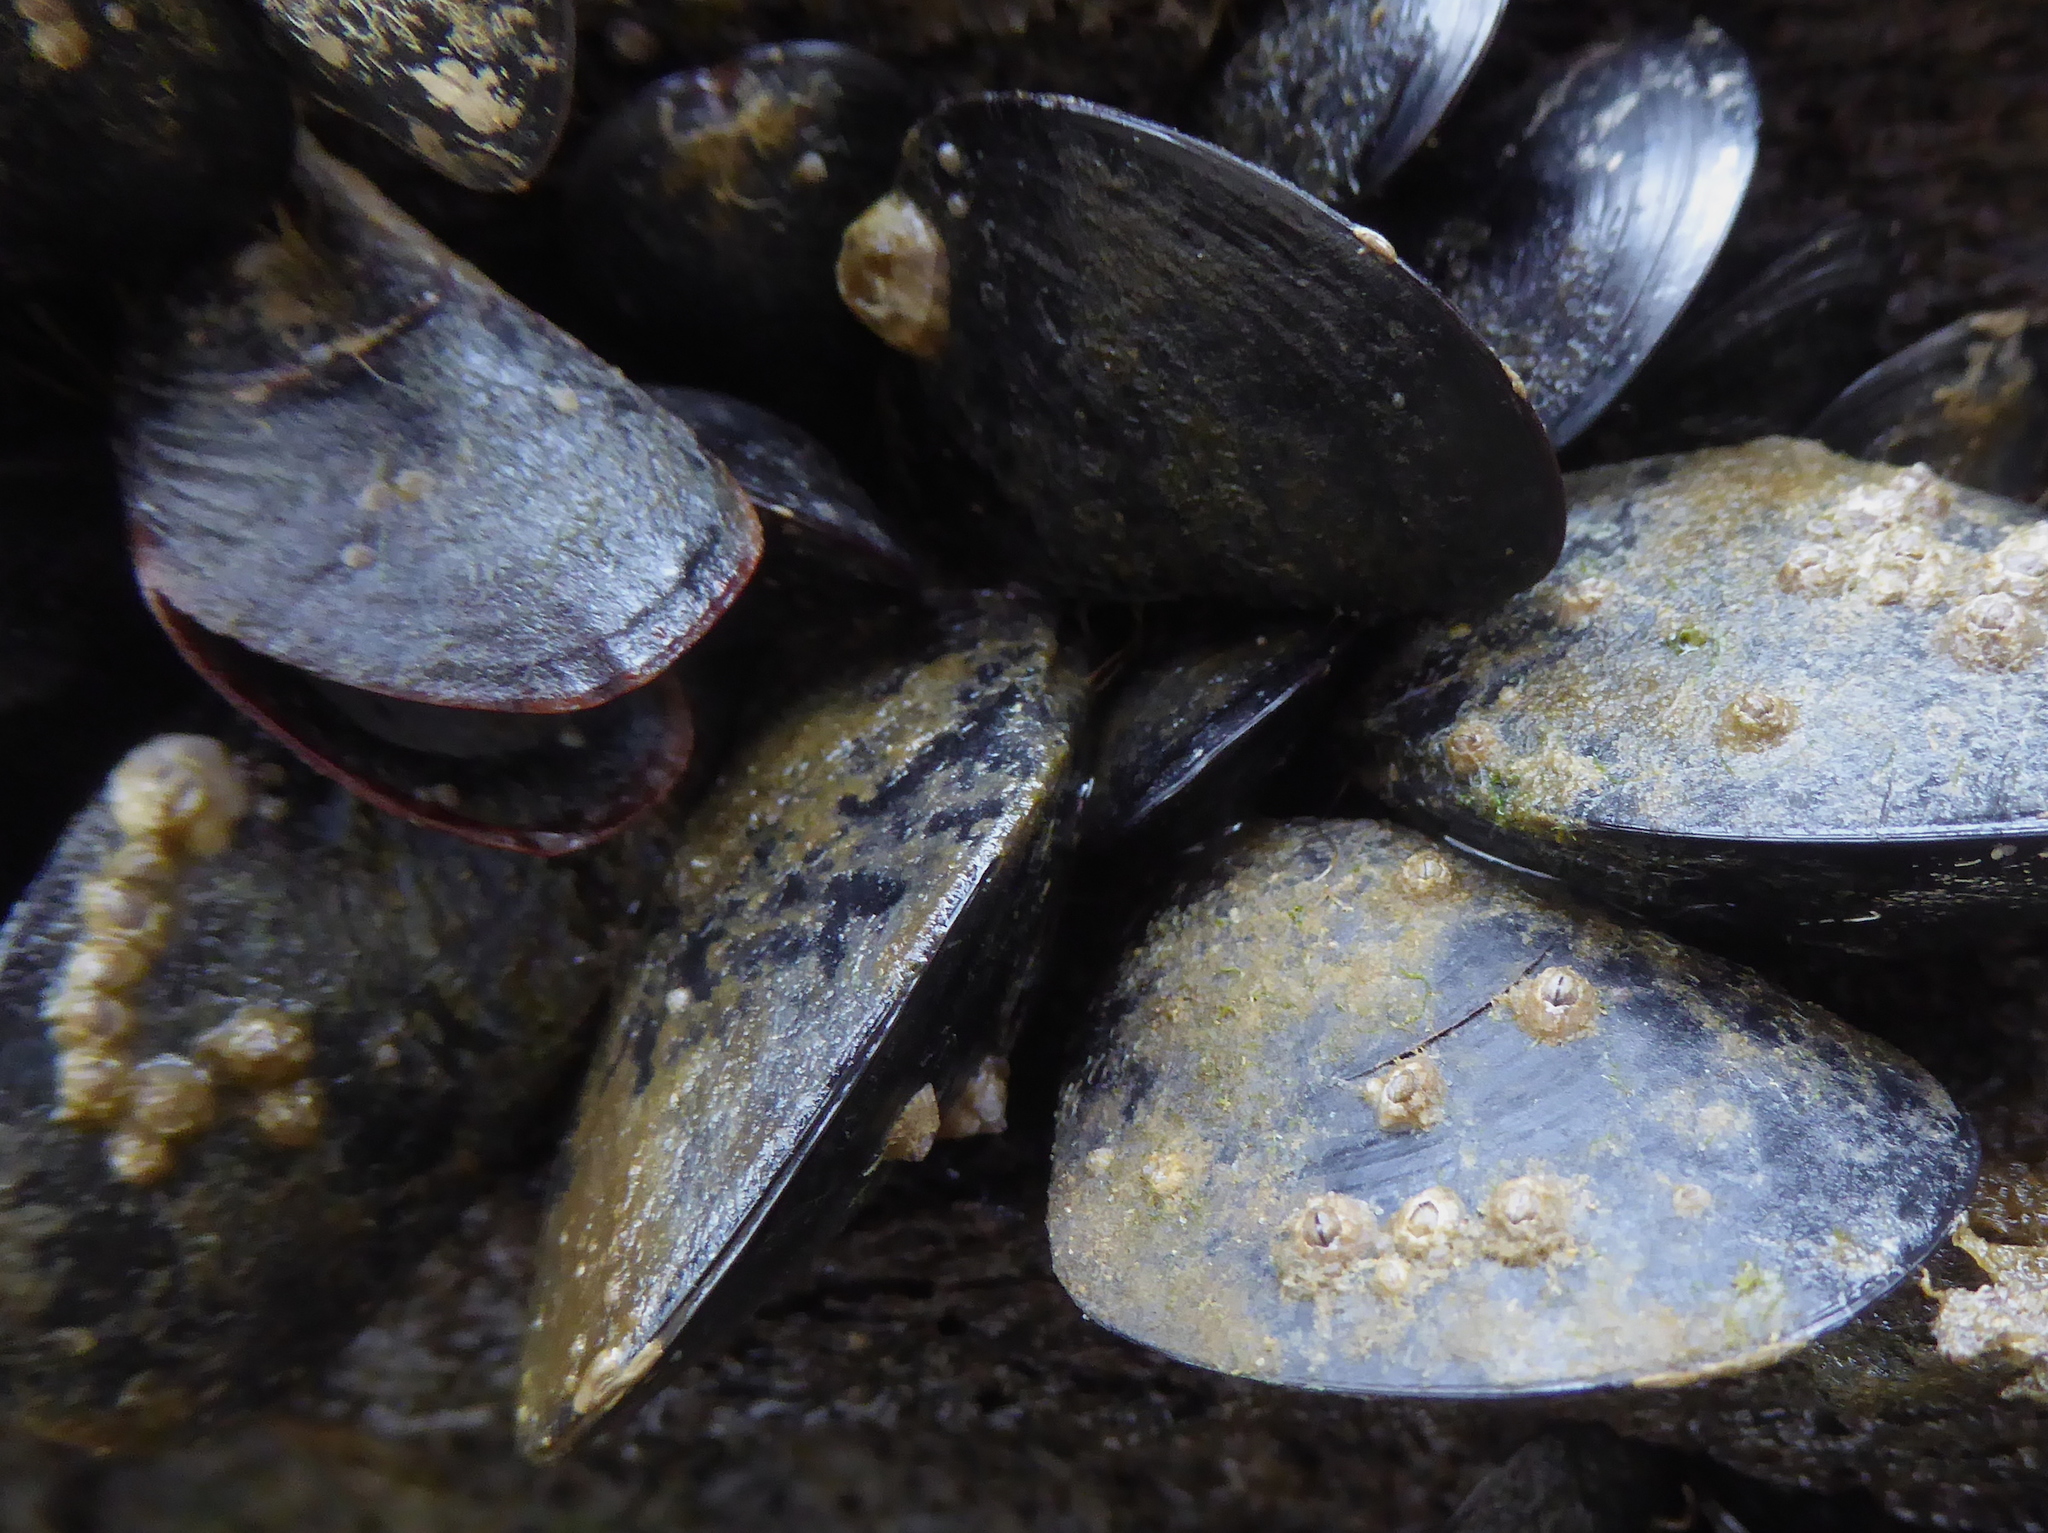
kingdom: Animalia
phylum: Mollusca
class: Bivalvia
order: Mytilida
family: Mytilidae
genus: Mytilus
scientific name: Mytilus
